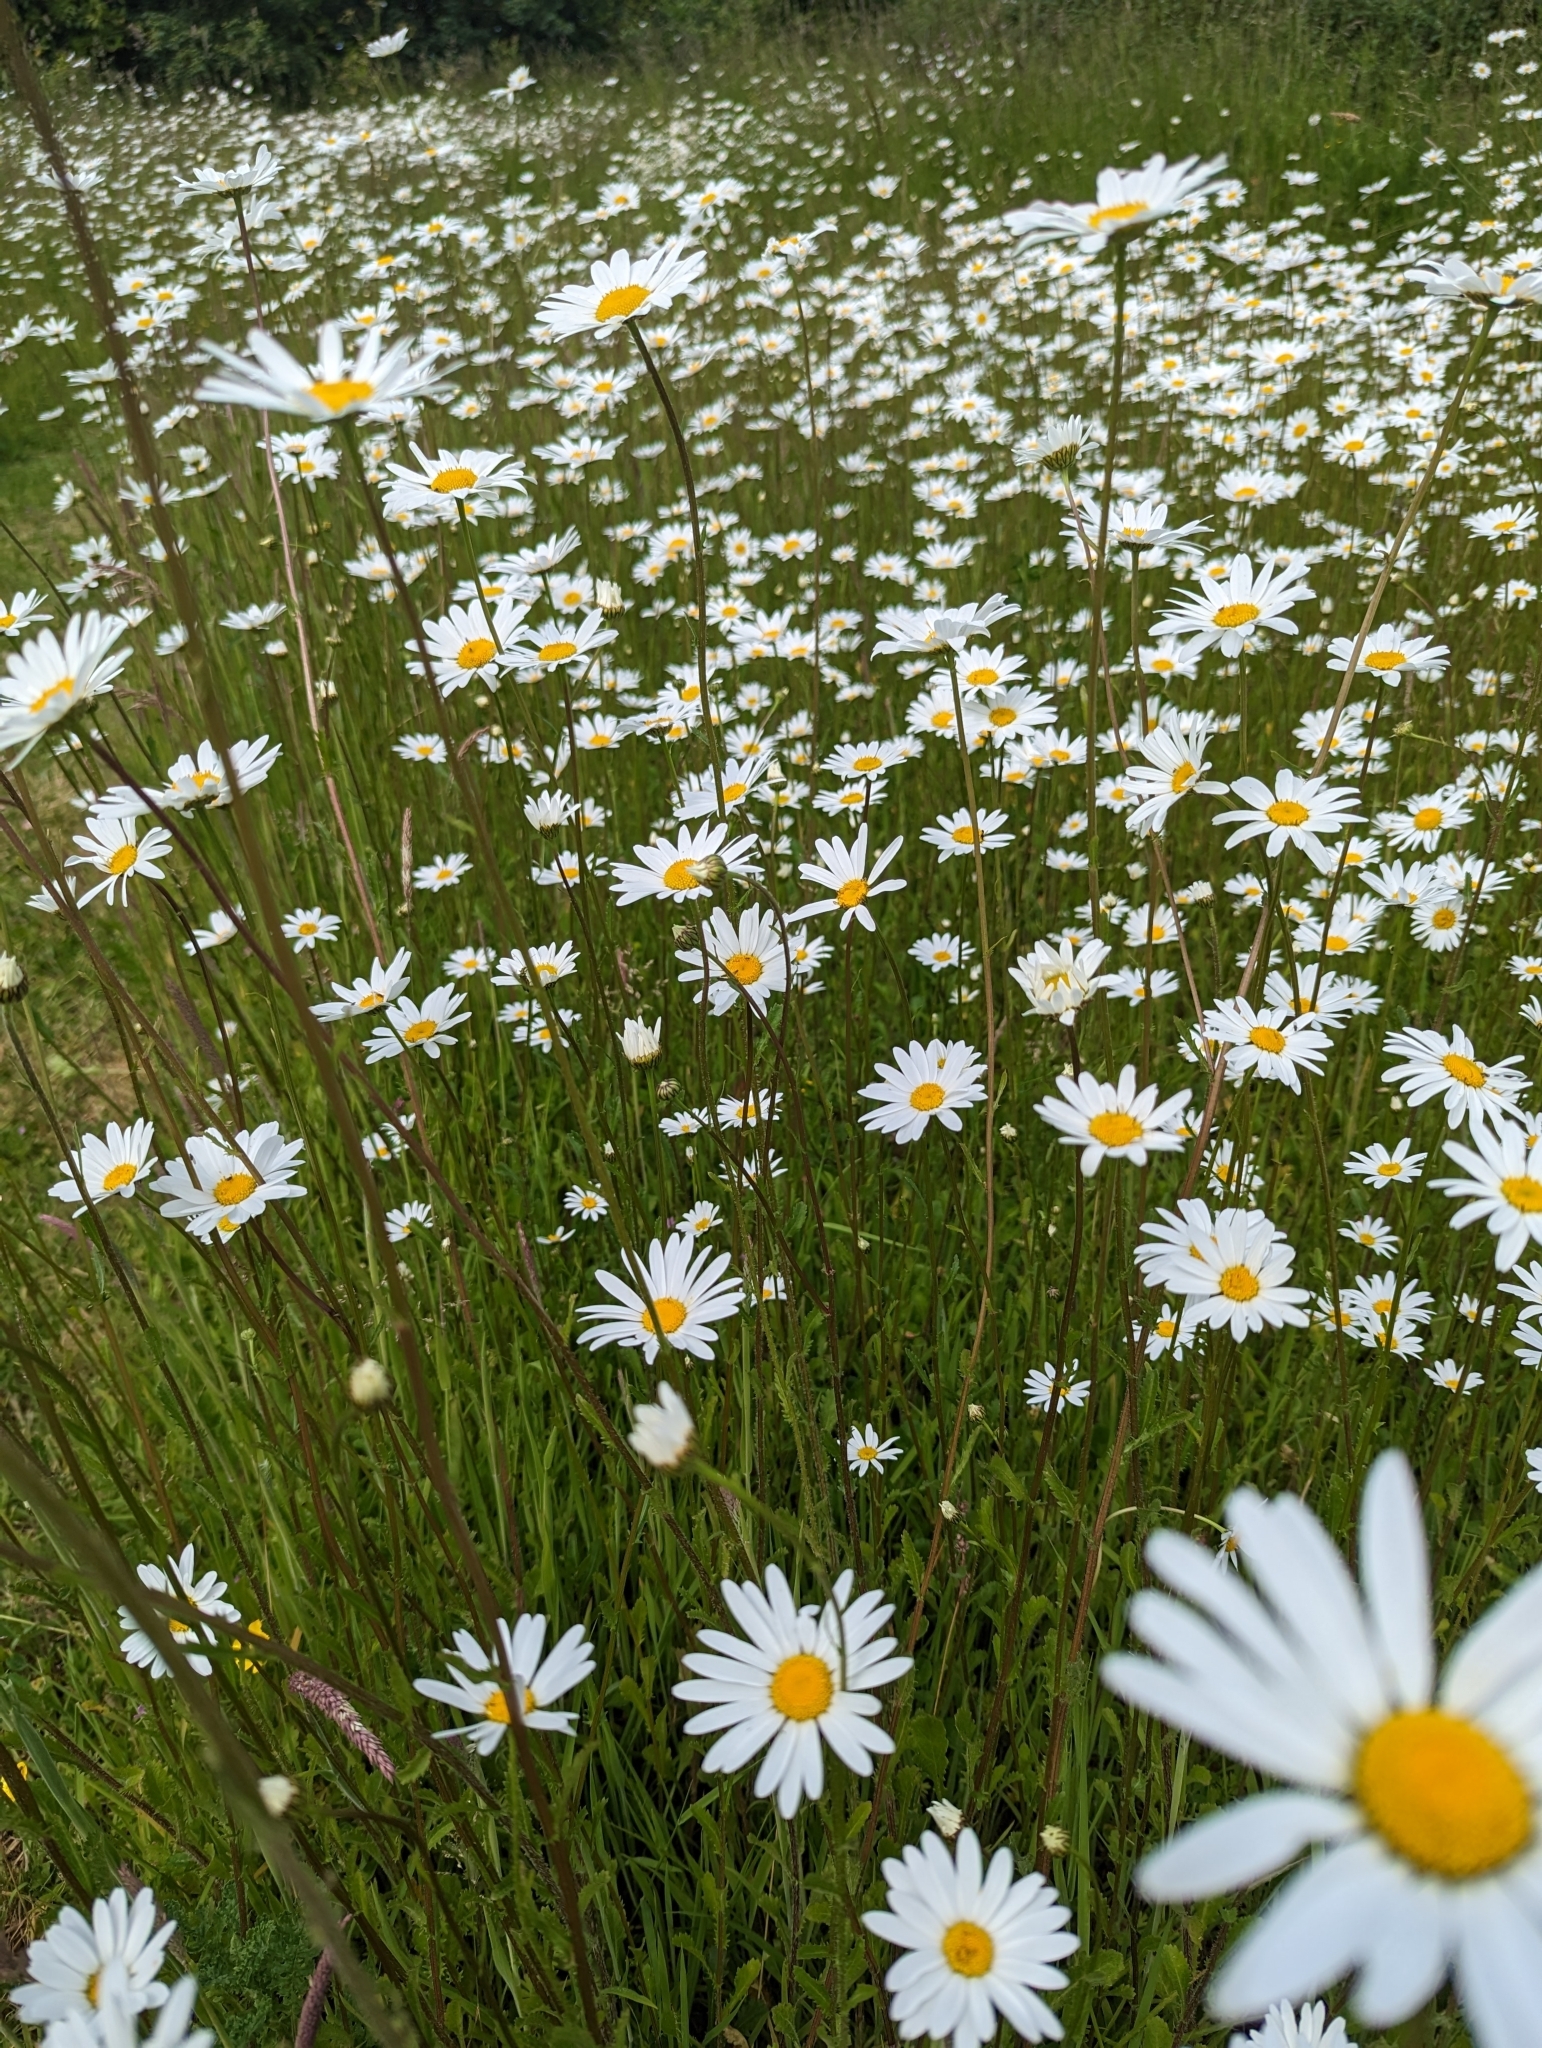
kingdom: Plantae
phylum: Tracheophyta
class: Magnoliopsida
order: Asterales
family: Asteraceae
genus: Leucanthemum
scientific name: Leucanthemum vulgare
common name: Oxeye daisy
